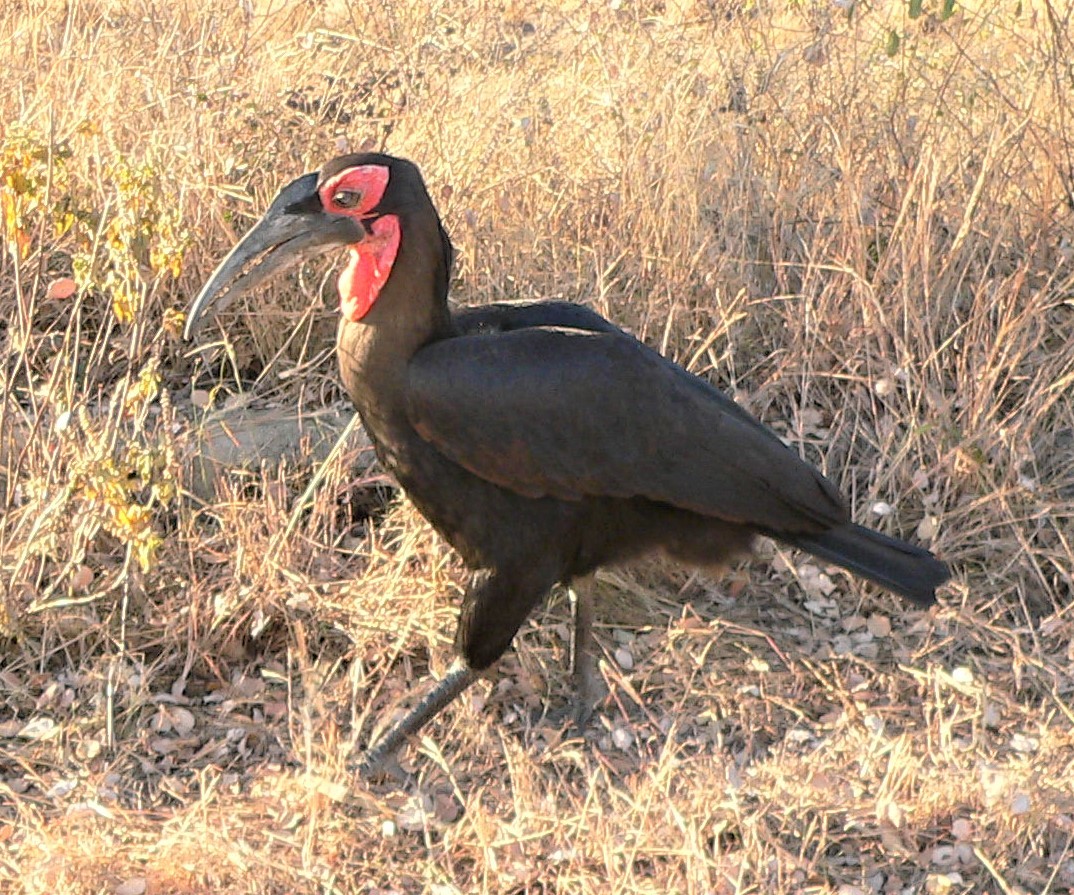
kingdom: Animalia
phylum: Chordata
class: Aves
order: Bucerotiformes
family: Bucorvidae
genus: Bucorvus
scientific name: Bucorvus leadbeateri
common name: Southern ground-hornbill
